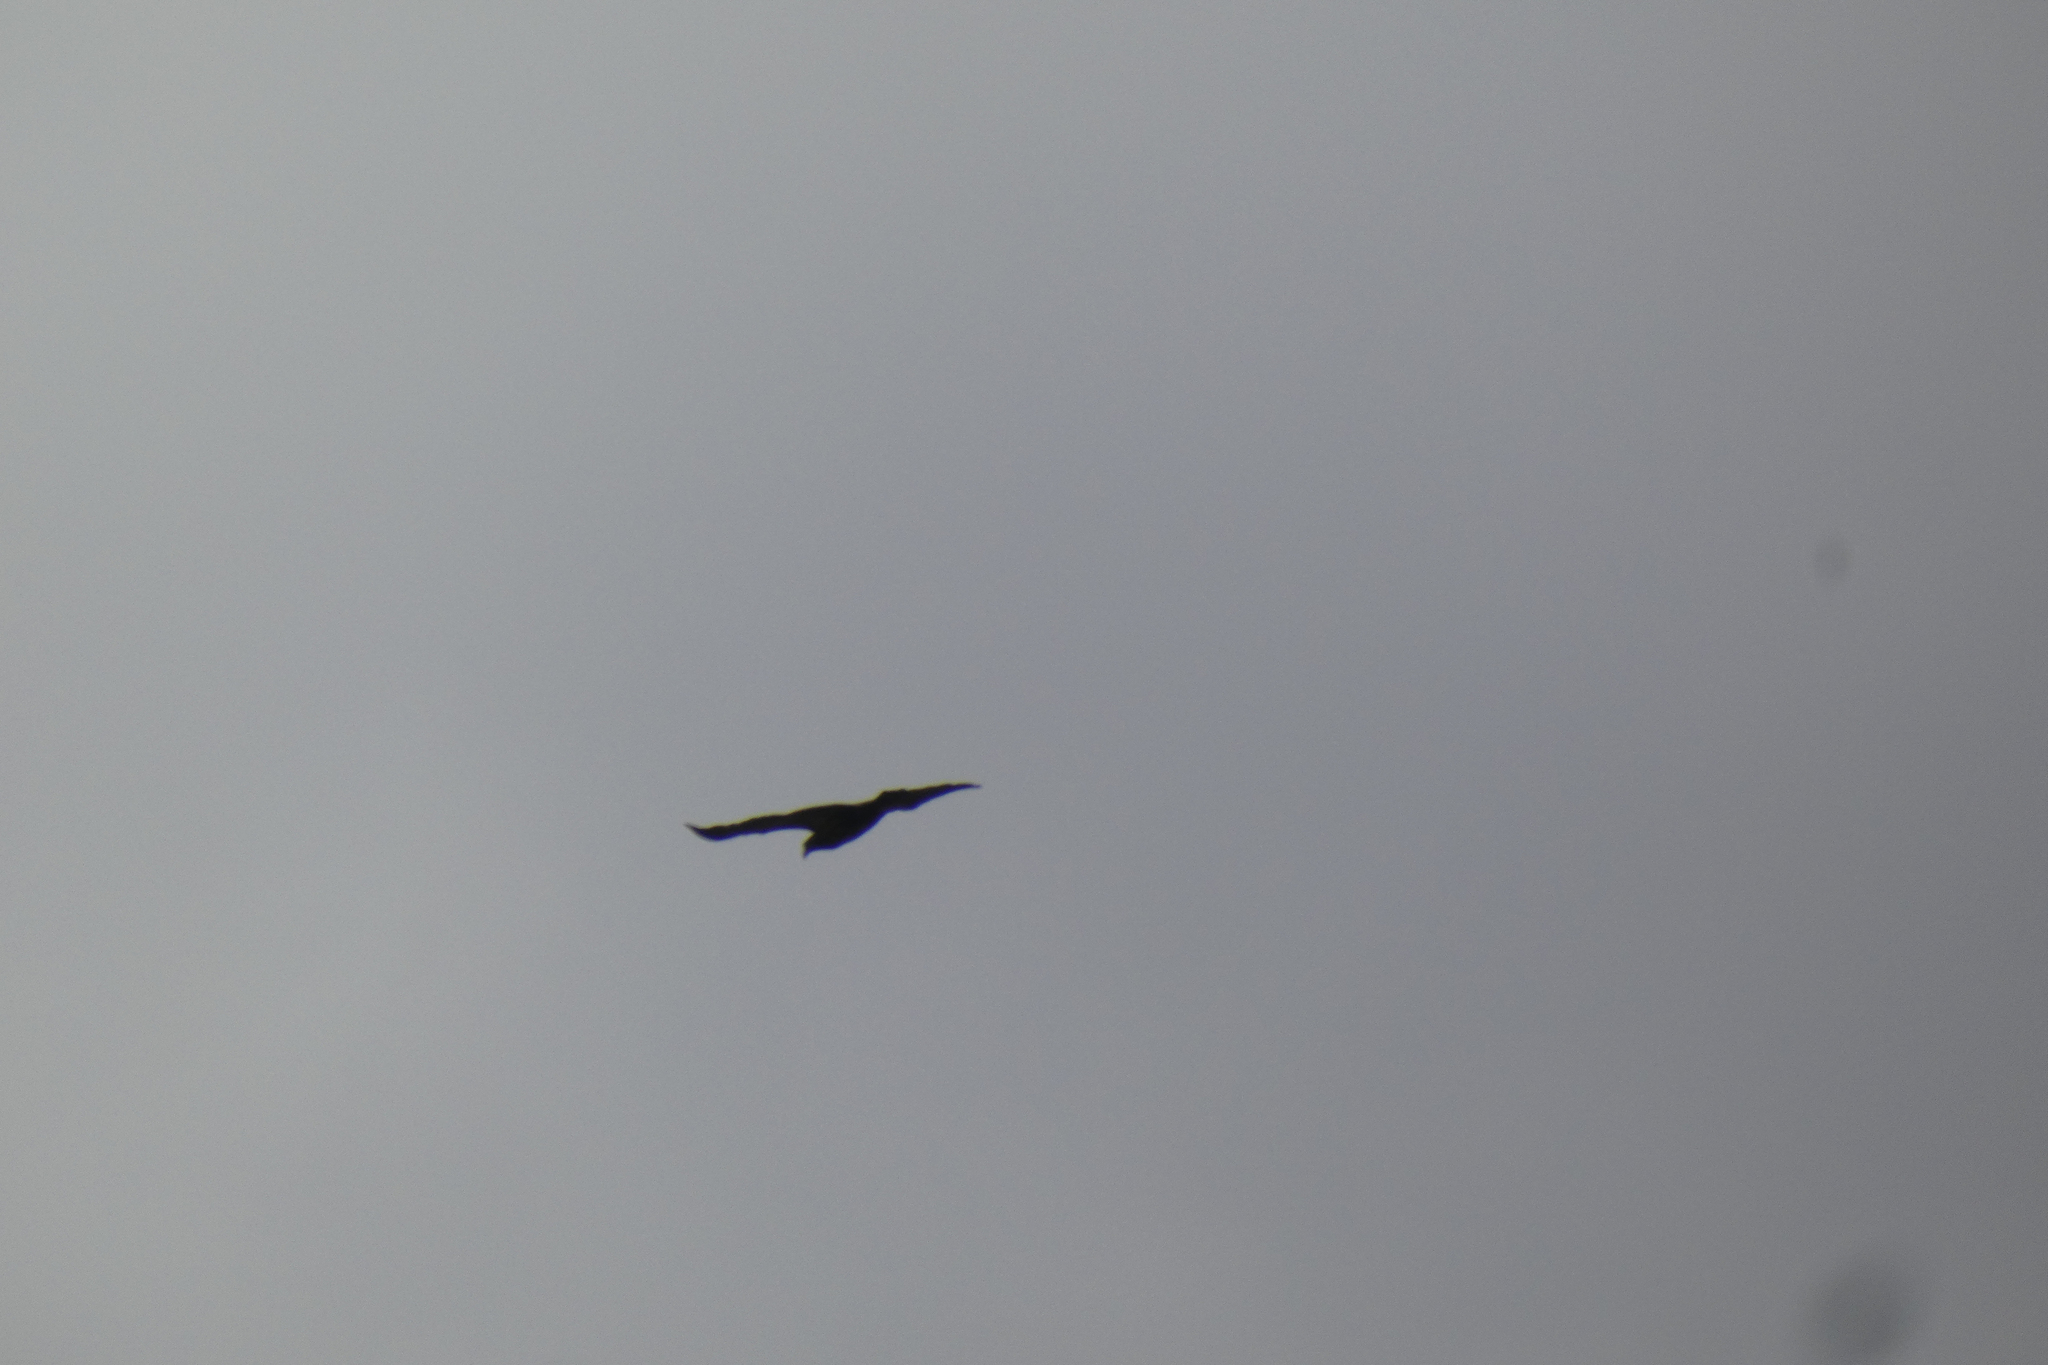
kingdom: Animalia
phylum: Chordata
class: Aves
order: Accipitriformes
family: Accipitridae
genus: Haliaeetus
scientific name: Haliaeetus leucocephalus
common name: Bald eagle
